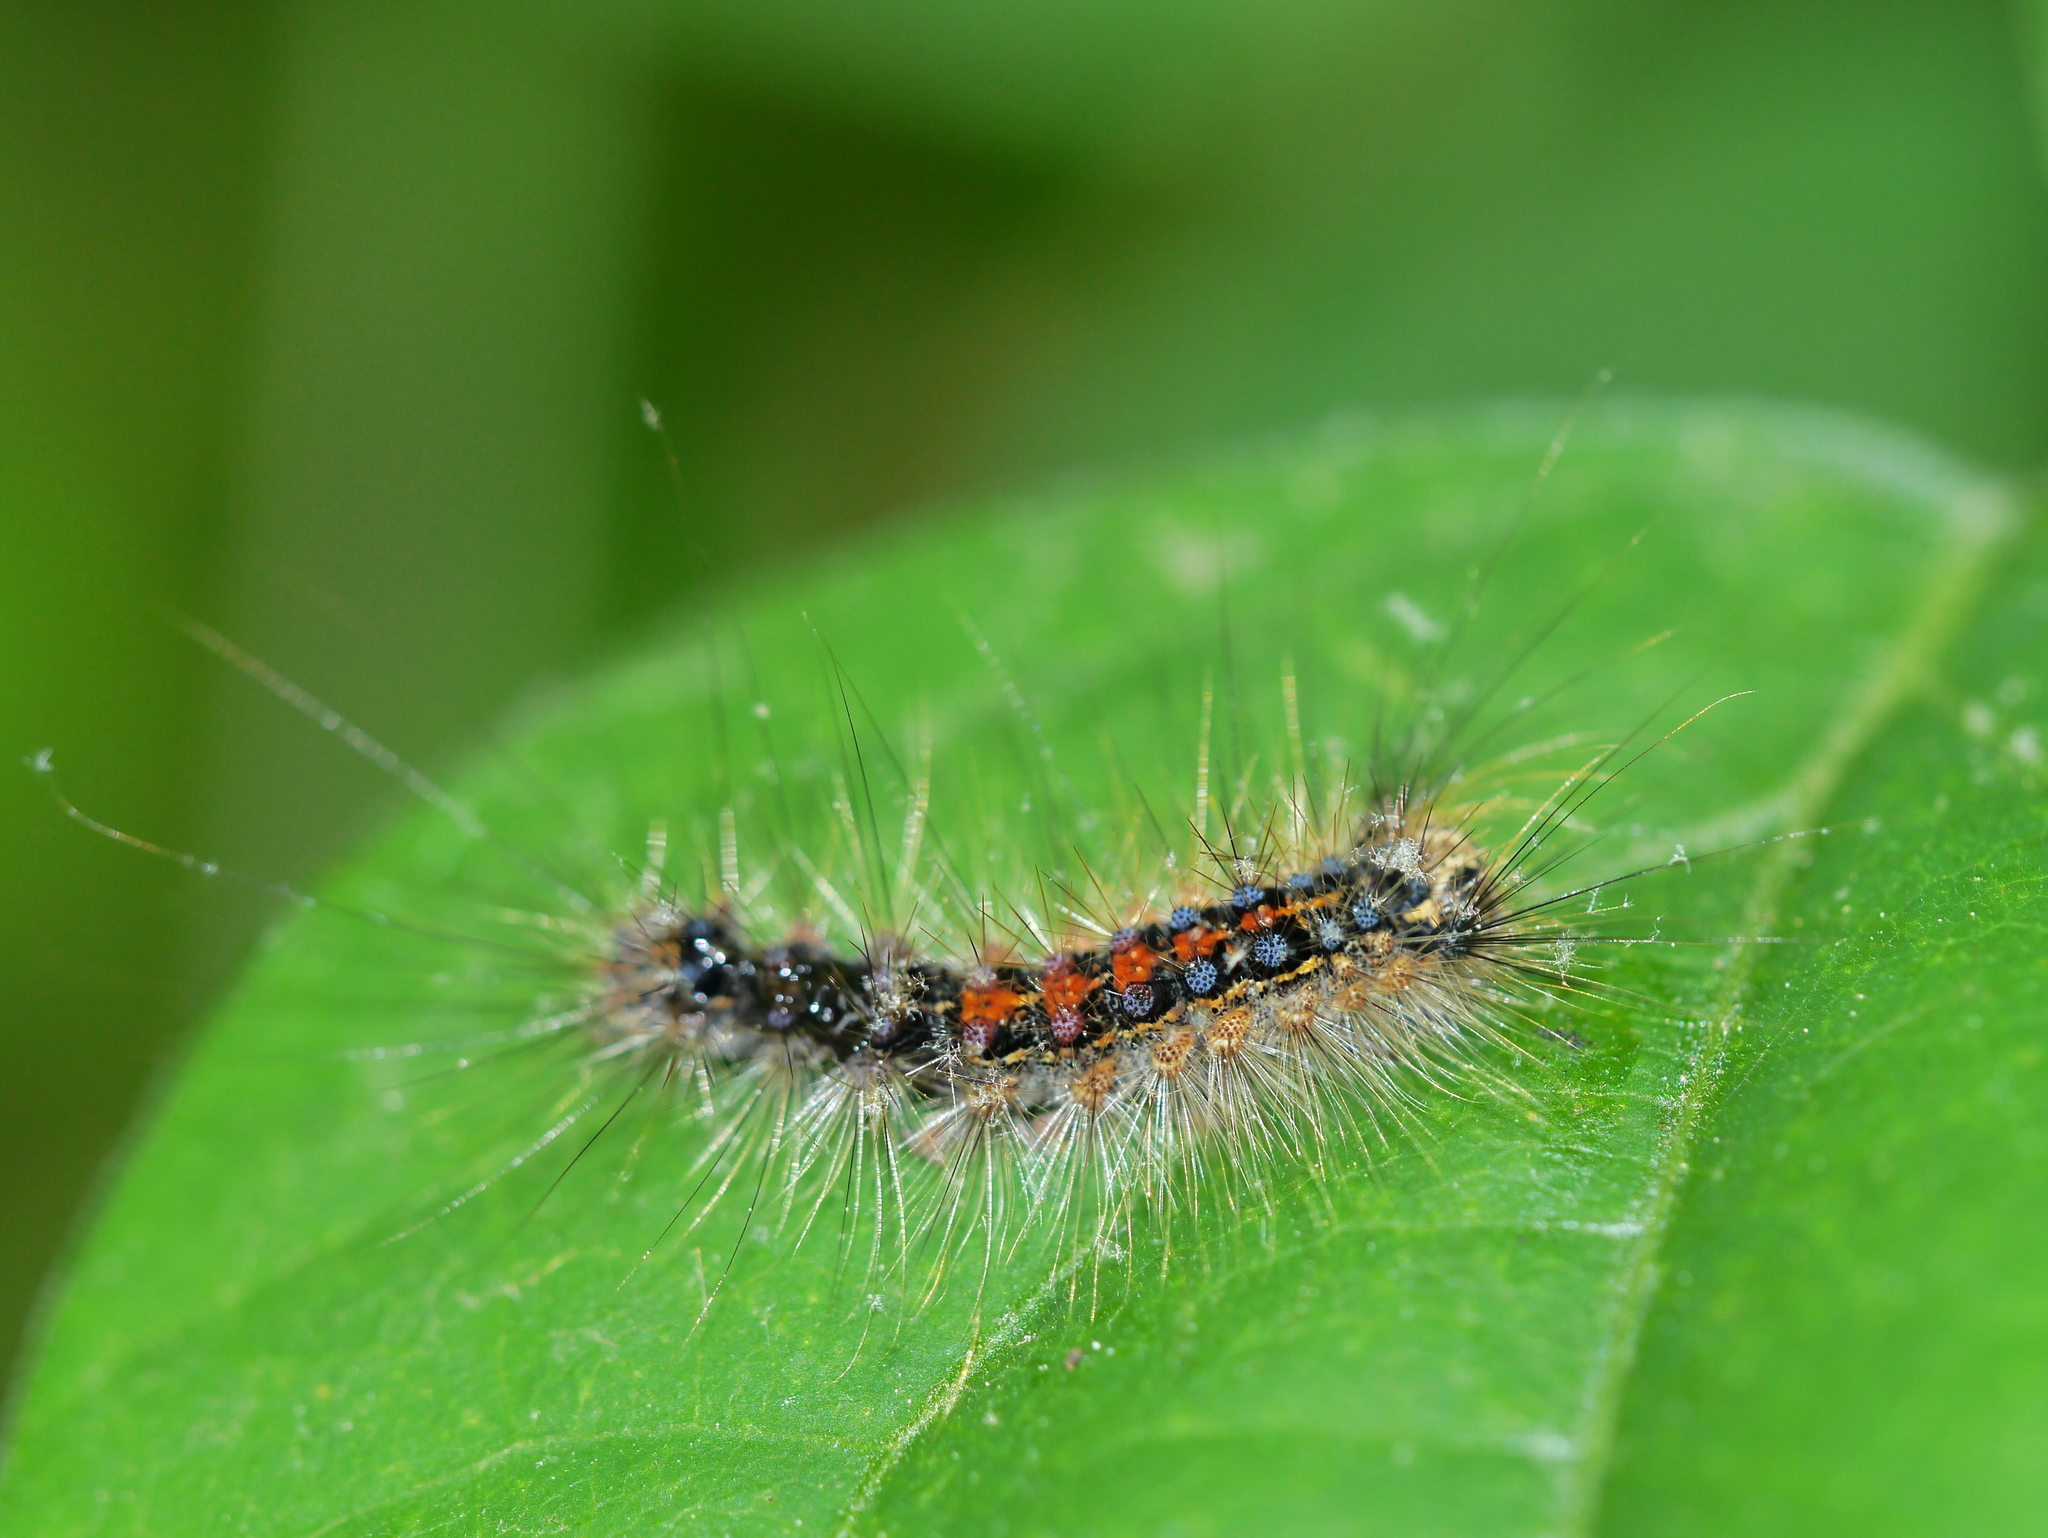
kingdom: Animalia
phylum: Arthropoda
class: Insecta
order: Lepidoptera
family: Erebidae
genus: Lymantria
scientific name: Lymantria dispar
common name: Gypsy moth
